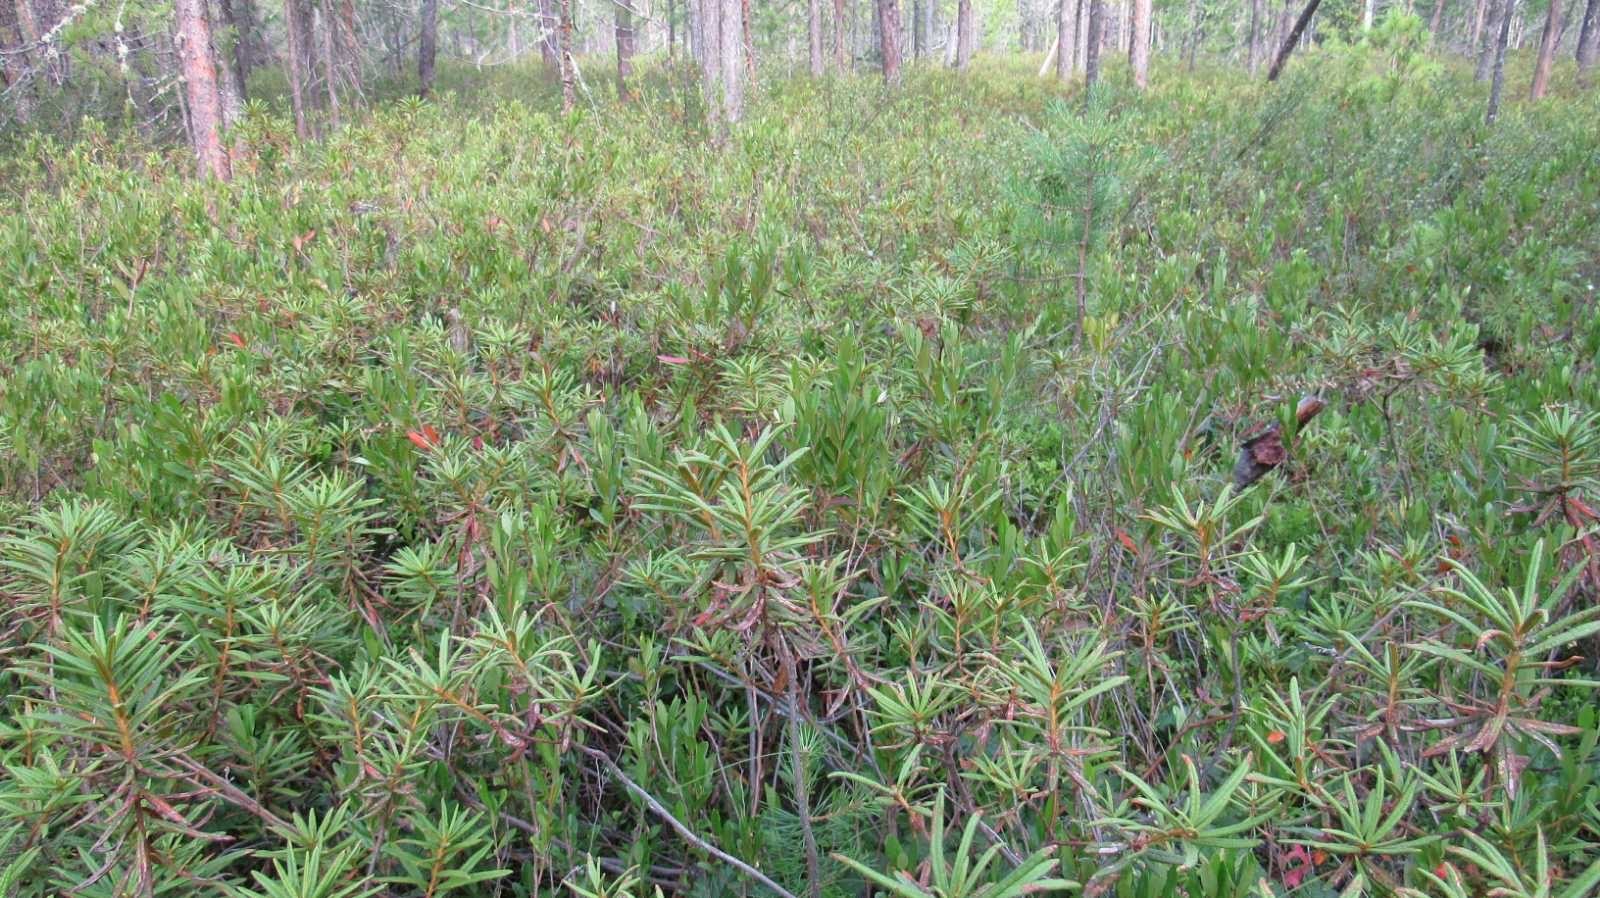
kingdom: Plantae
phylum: Tracheophyta
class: Magnoliopsida
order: Ericales
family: Ericaceae
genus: Rhododendron
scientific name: Rhododendron tomentosum
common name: Marsh labrador tea
